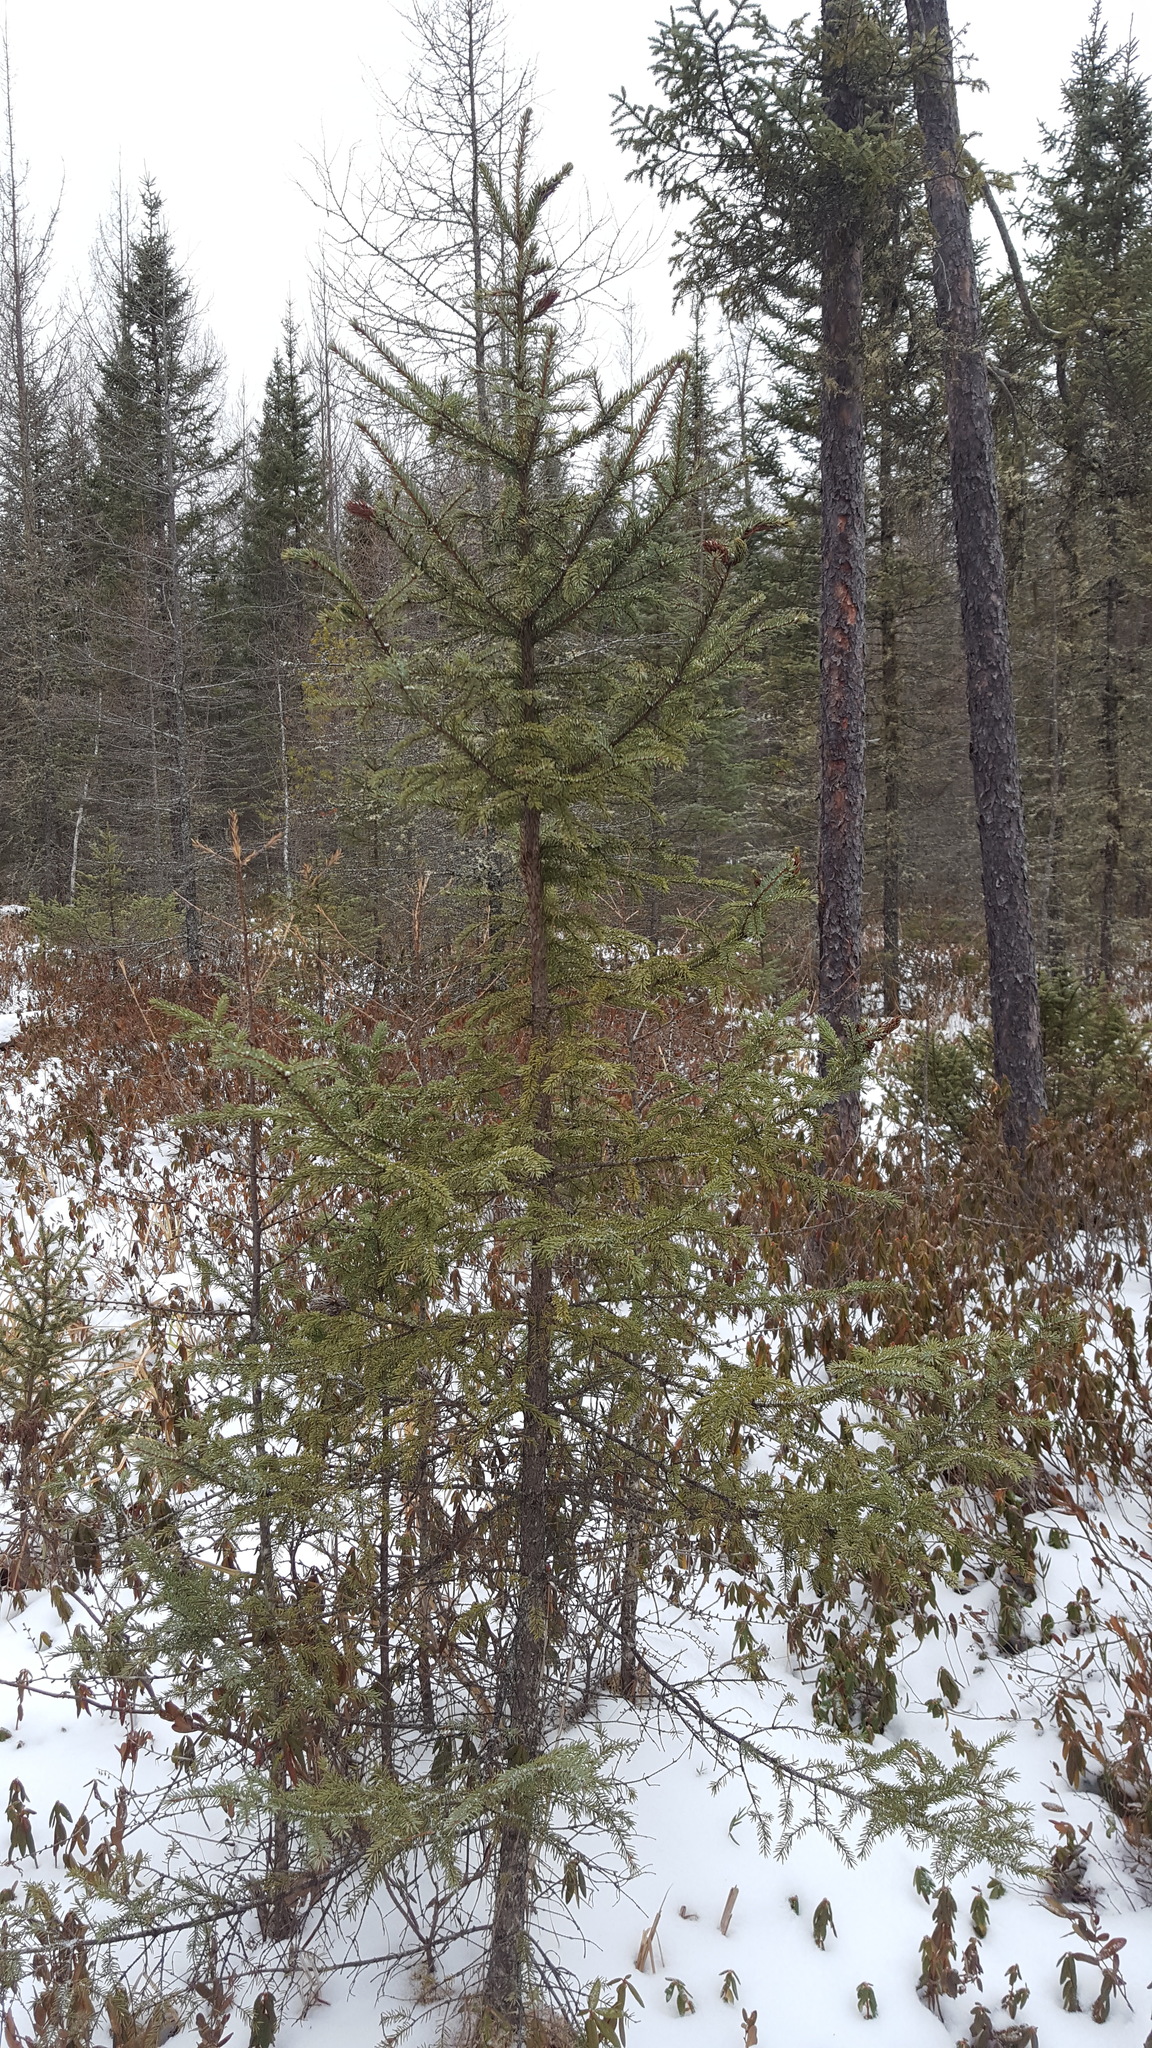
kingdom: Plantae
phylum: Tracheophyta
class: Pinopsida
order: Pinales
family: Pinaceae
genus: Picea
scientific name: Picea mariana
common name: Black spruce
